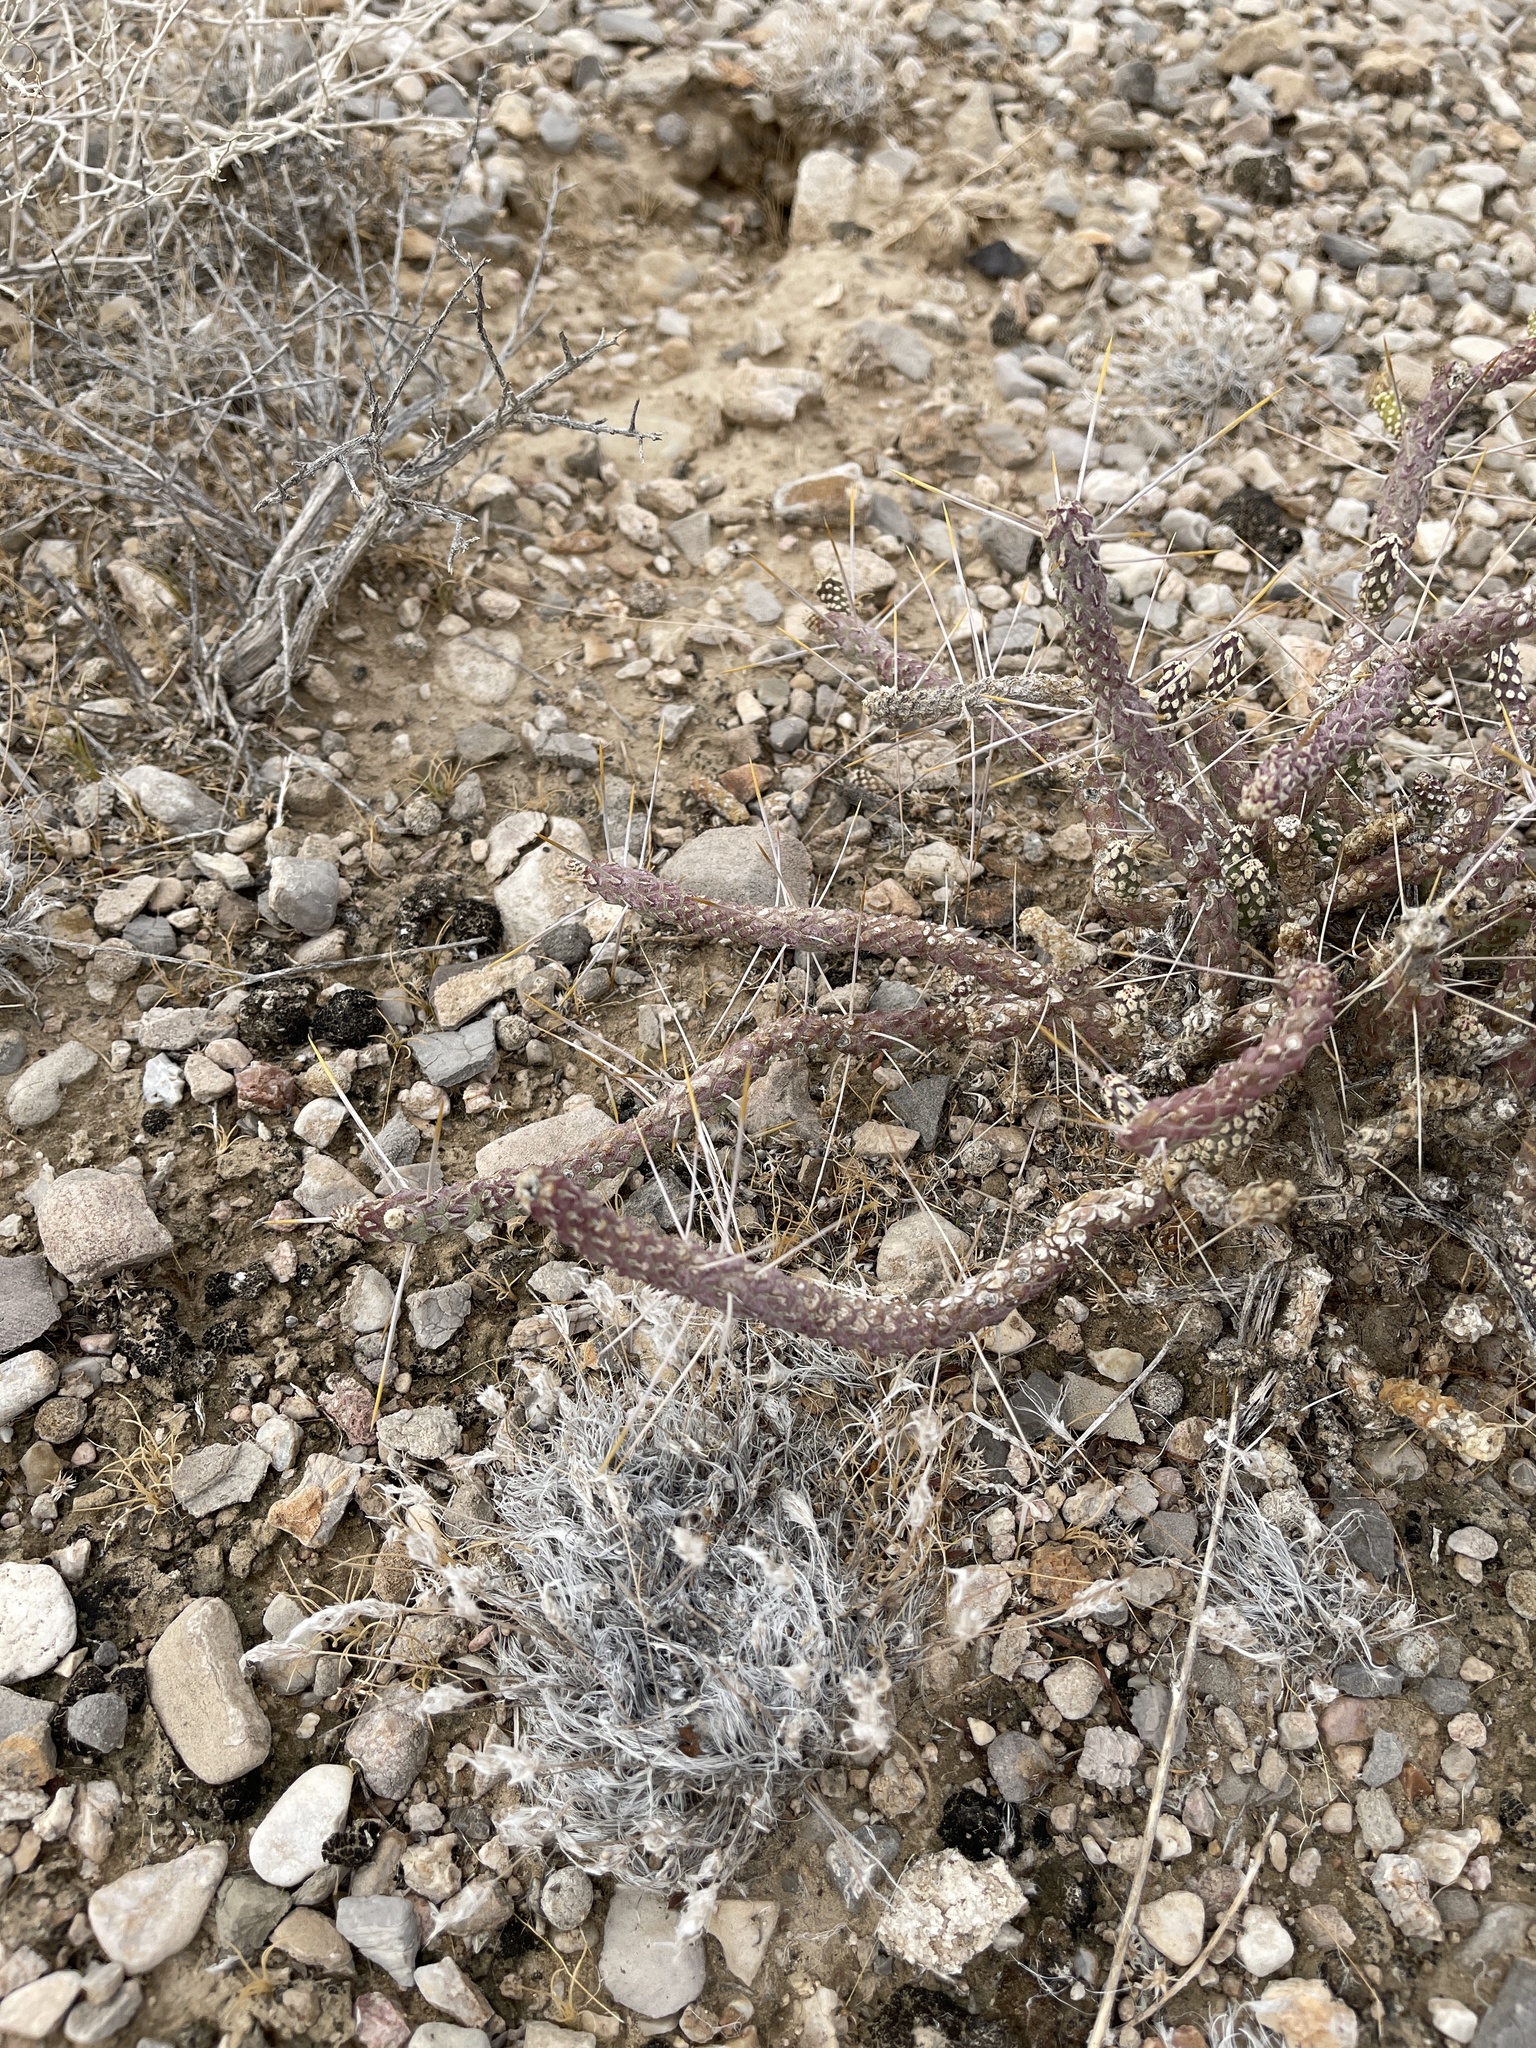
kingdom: Plantae
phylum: Tracheophyta
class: Magnoliopsida
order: Caryophyllales
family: Cactaceae
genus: Cylindropuntia
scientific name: Cylindropuntia ramosissima
